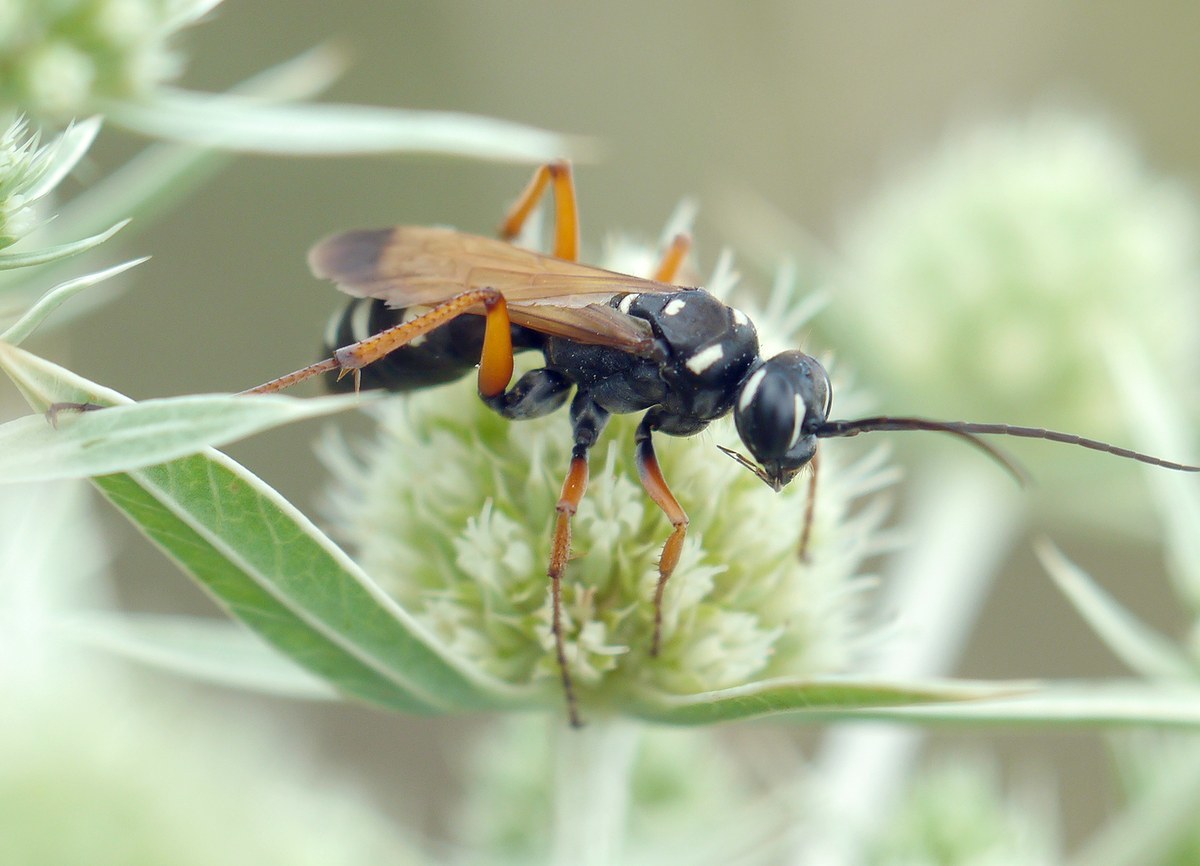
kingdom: Animalia
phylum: Arthropoda
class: Insecta
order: Hymenoptera
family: Pompilidae
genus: Cryptocheilus
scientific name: Cryptocheilus variabilis
